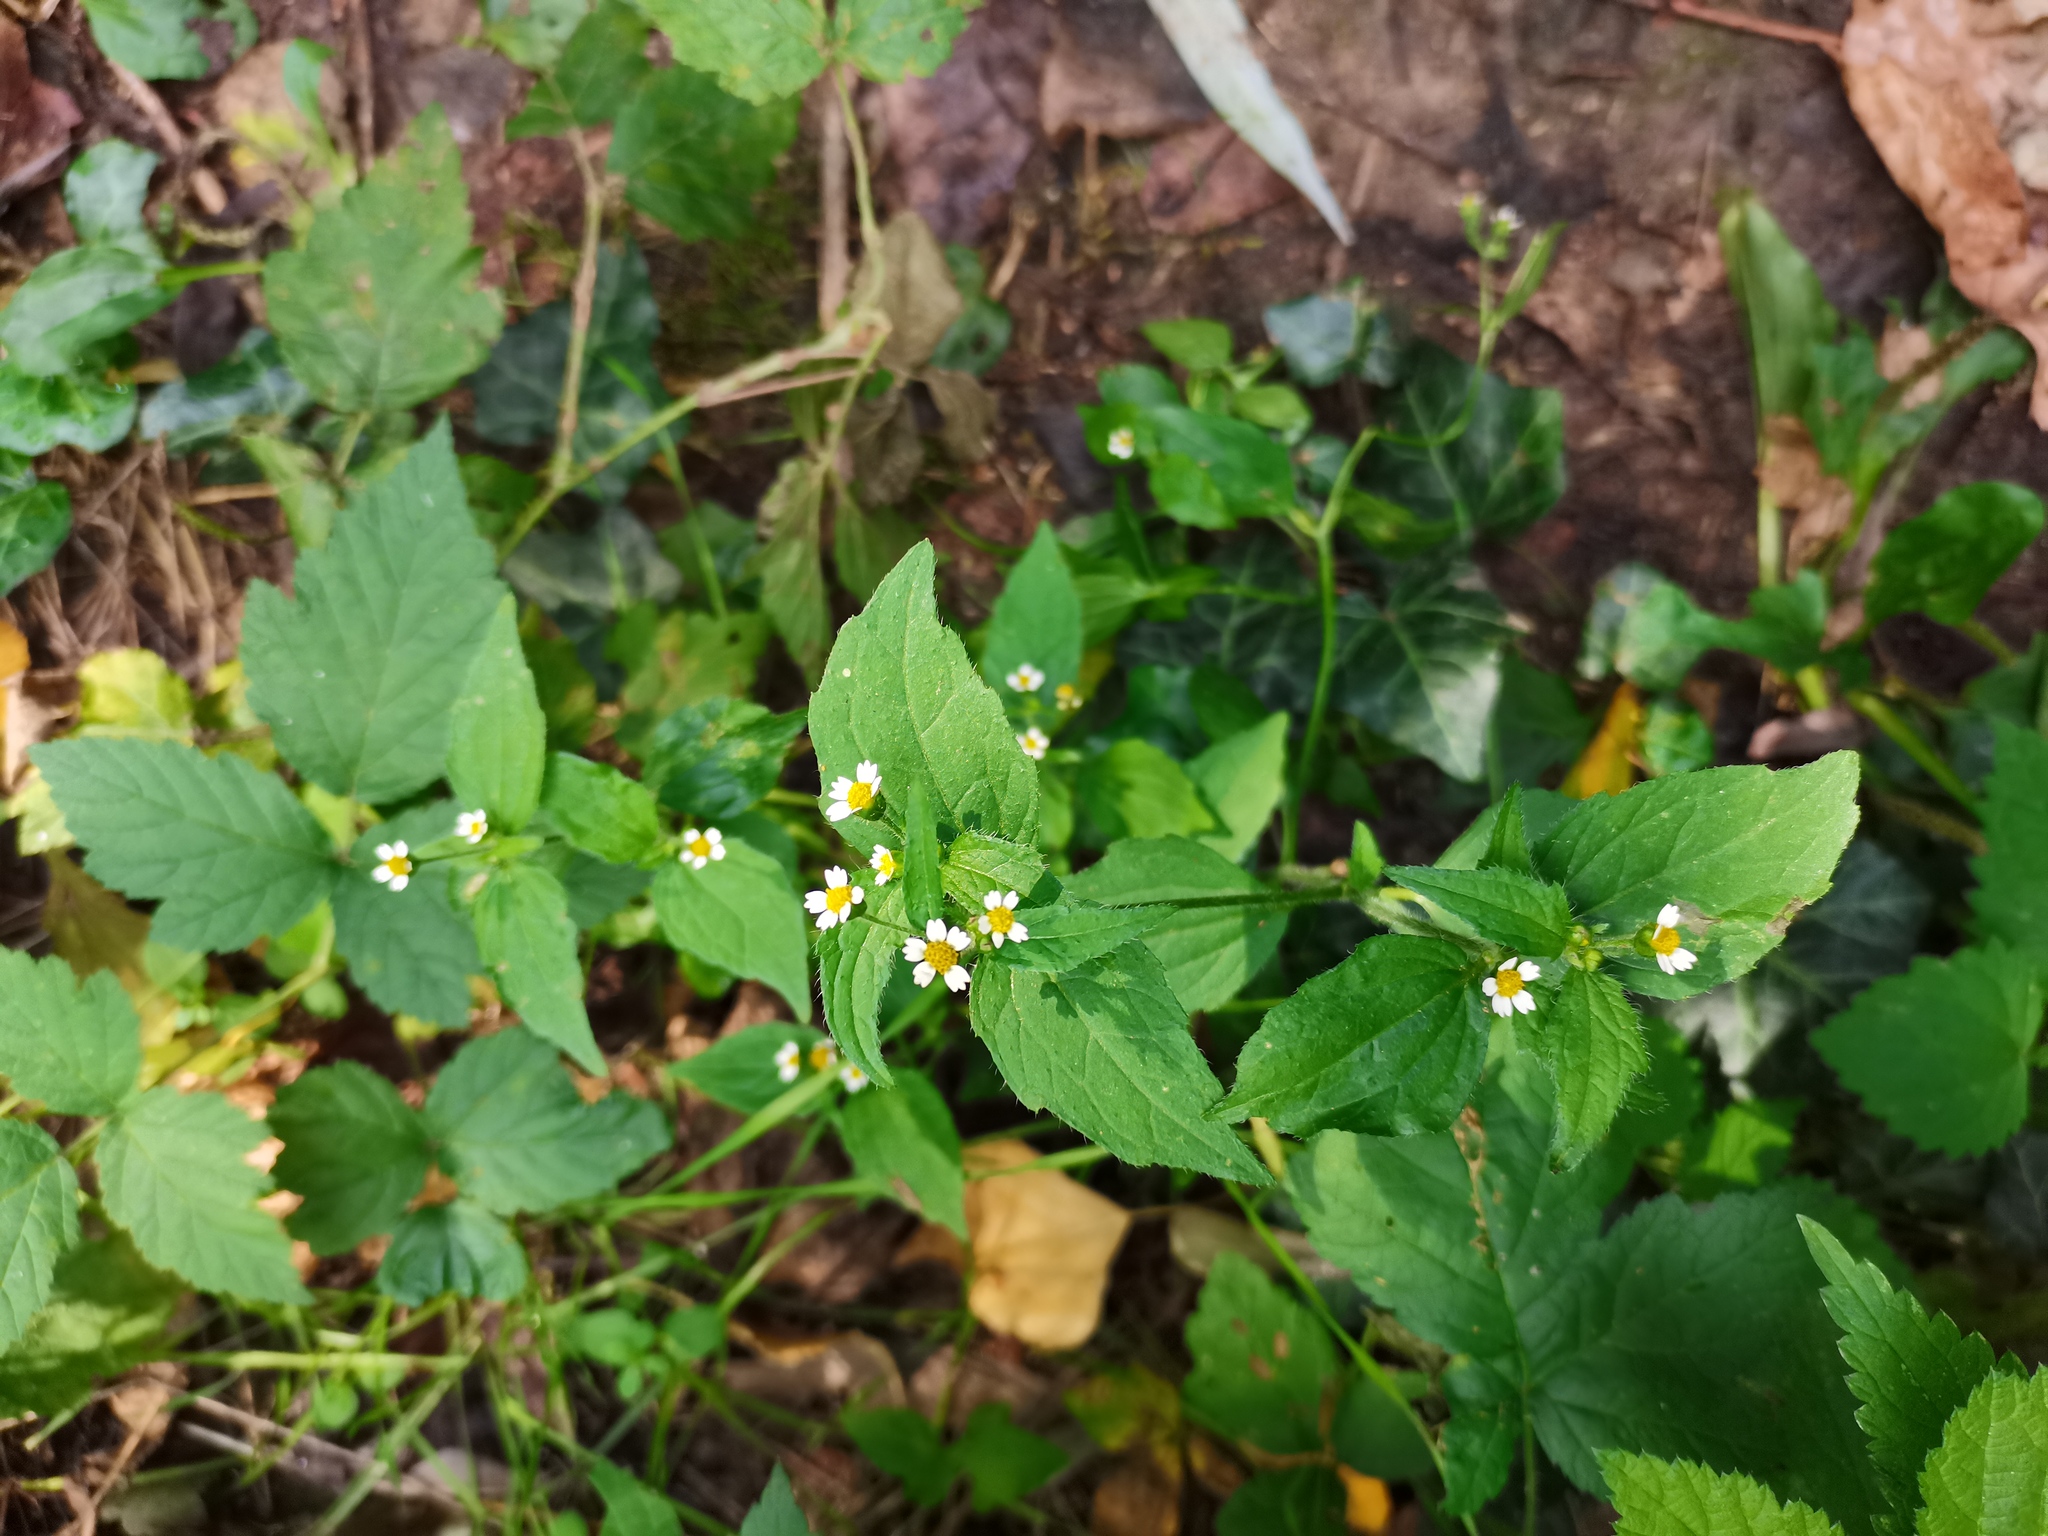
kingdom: Plantae
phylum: Tracheophyta
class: Magnoliopsida
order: Asterales
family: Asteraceae
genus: Galinsoga
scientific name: Galinsoga quadriradiata
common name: Shaggy soldier
